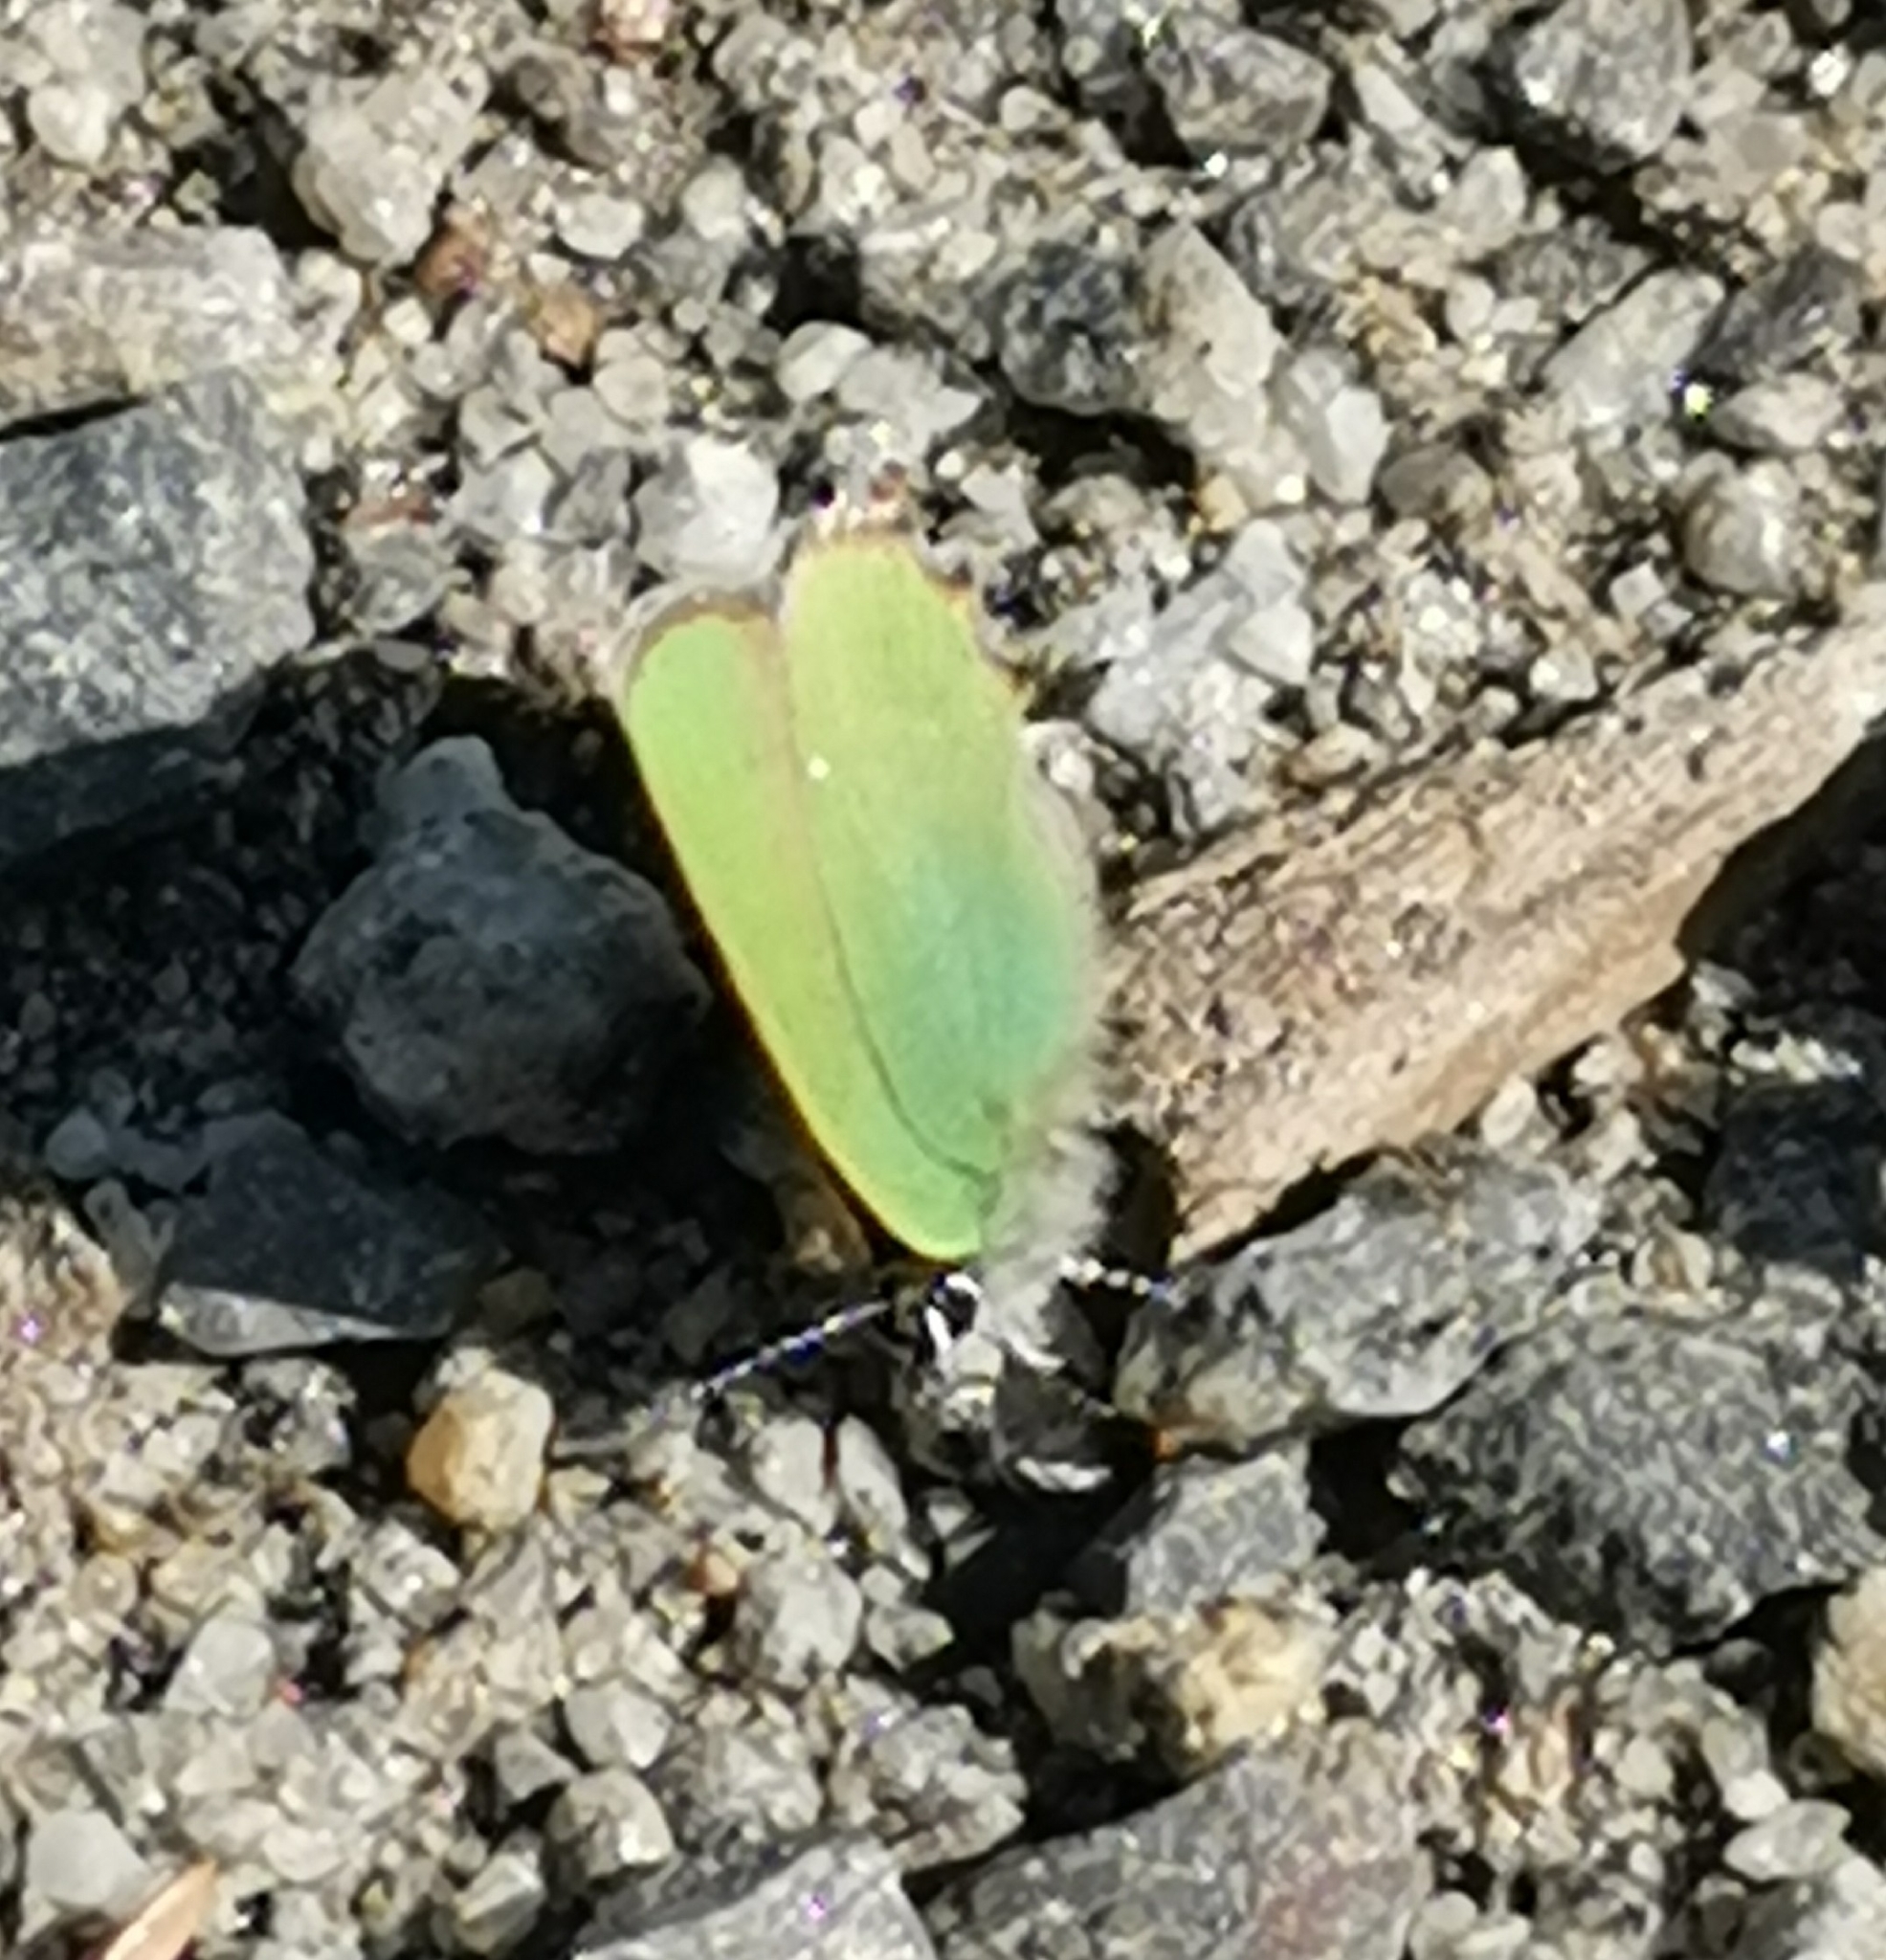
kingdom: Animalia
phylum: Arthropoda
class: Insecta
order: Lepidoptera
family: Lycaenidae
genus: Callophrys
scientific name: Callophrys rubi
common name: Green hairstreak
